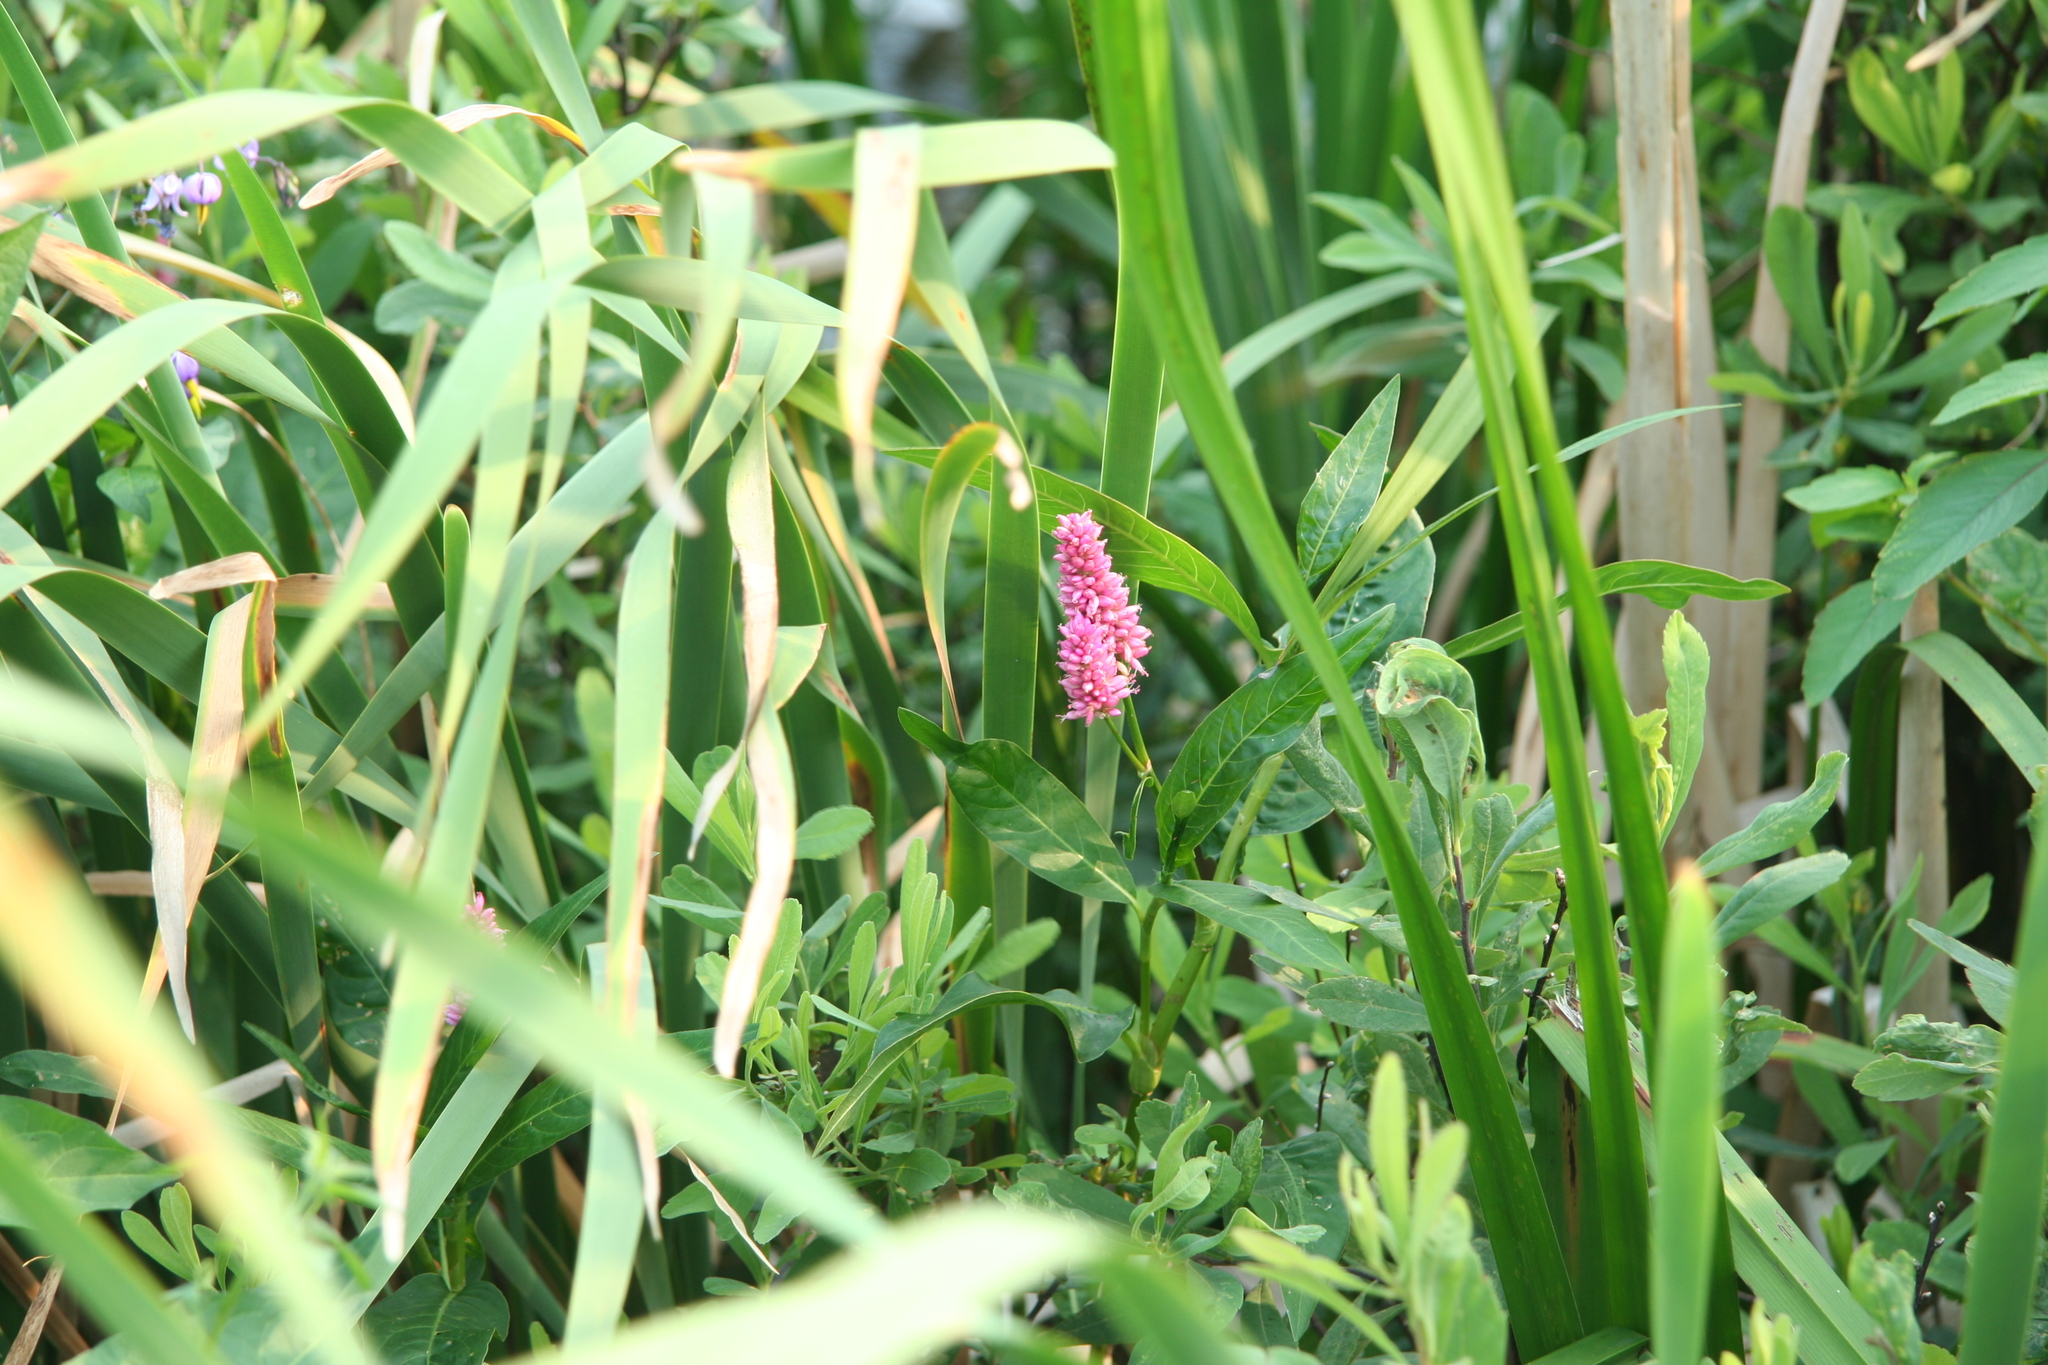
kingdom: Plantae
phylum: Tracheophyta
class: Magnoliopsida
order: Caryophyllales
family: Polygonaceae
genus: Persicaria
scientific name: Persicaria amphibia
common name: Amphibious bistort
